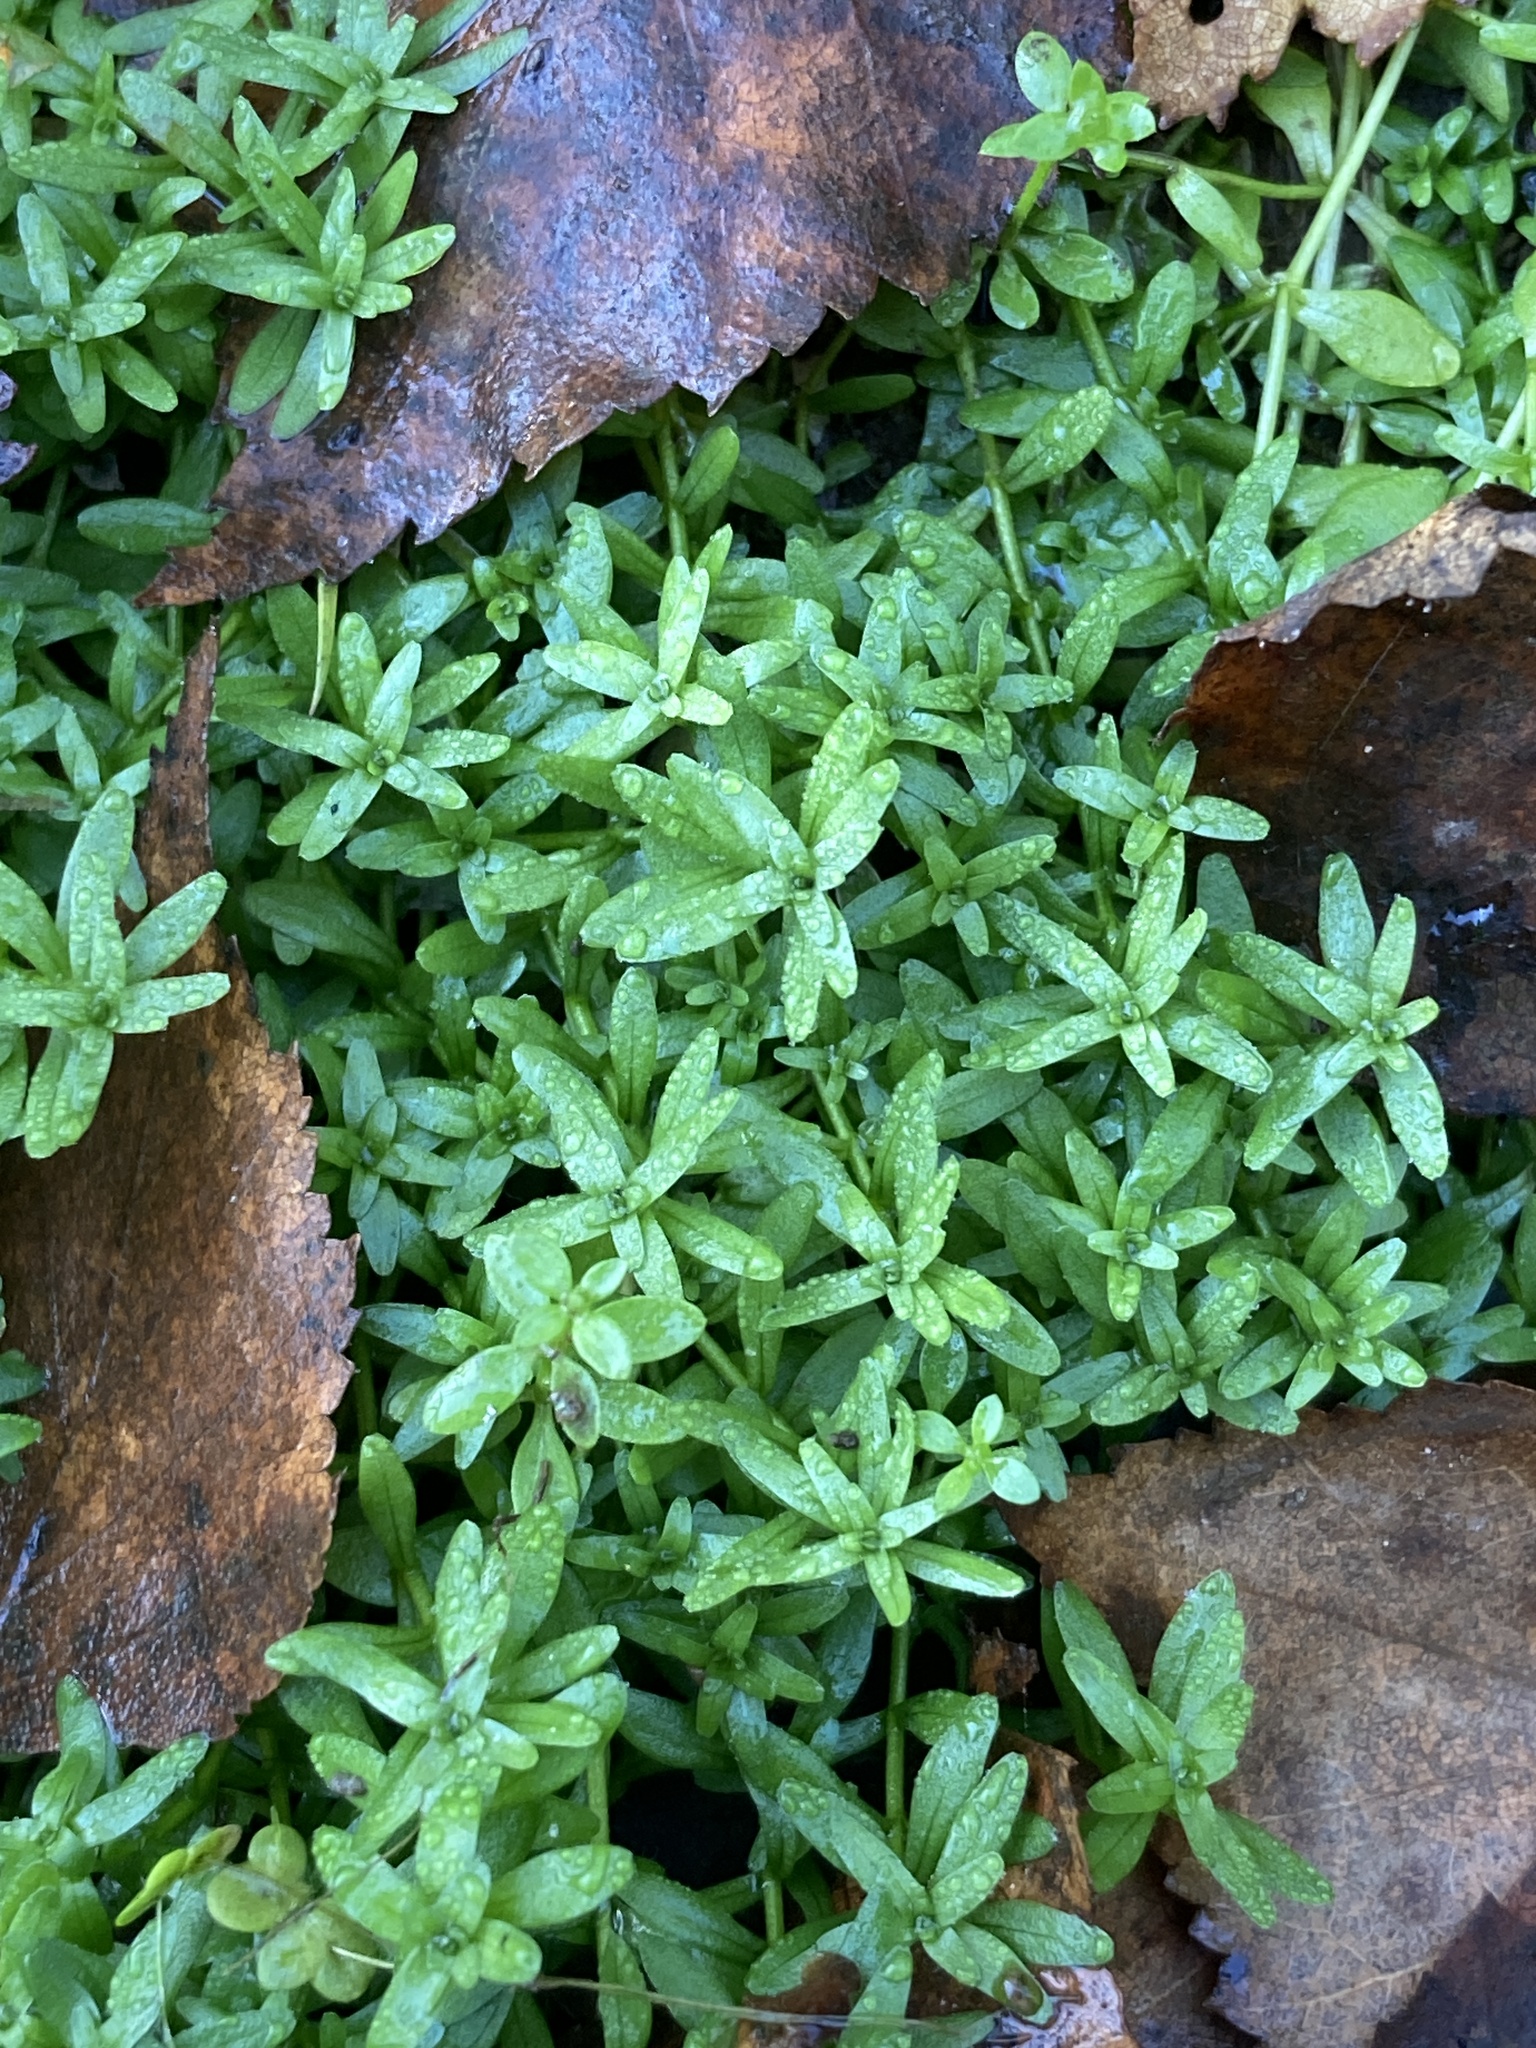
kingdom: Plantae
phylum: Tracheophyta
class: Magnoliopsida
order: Lamiales
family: Plantaginaceae
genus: Callitriche
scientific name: Callitriche
